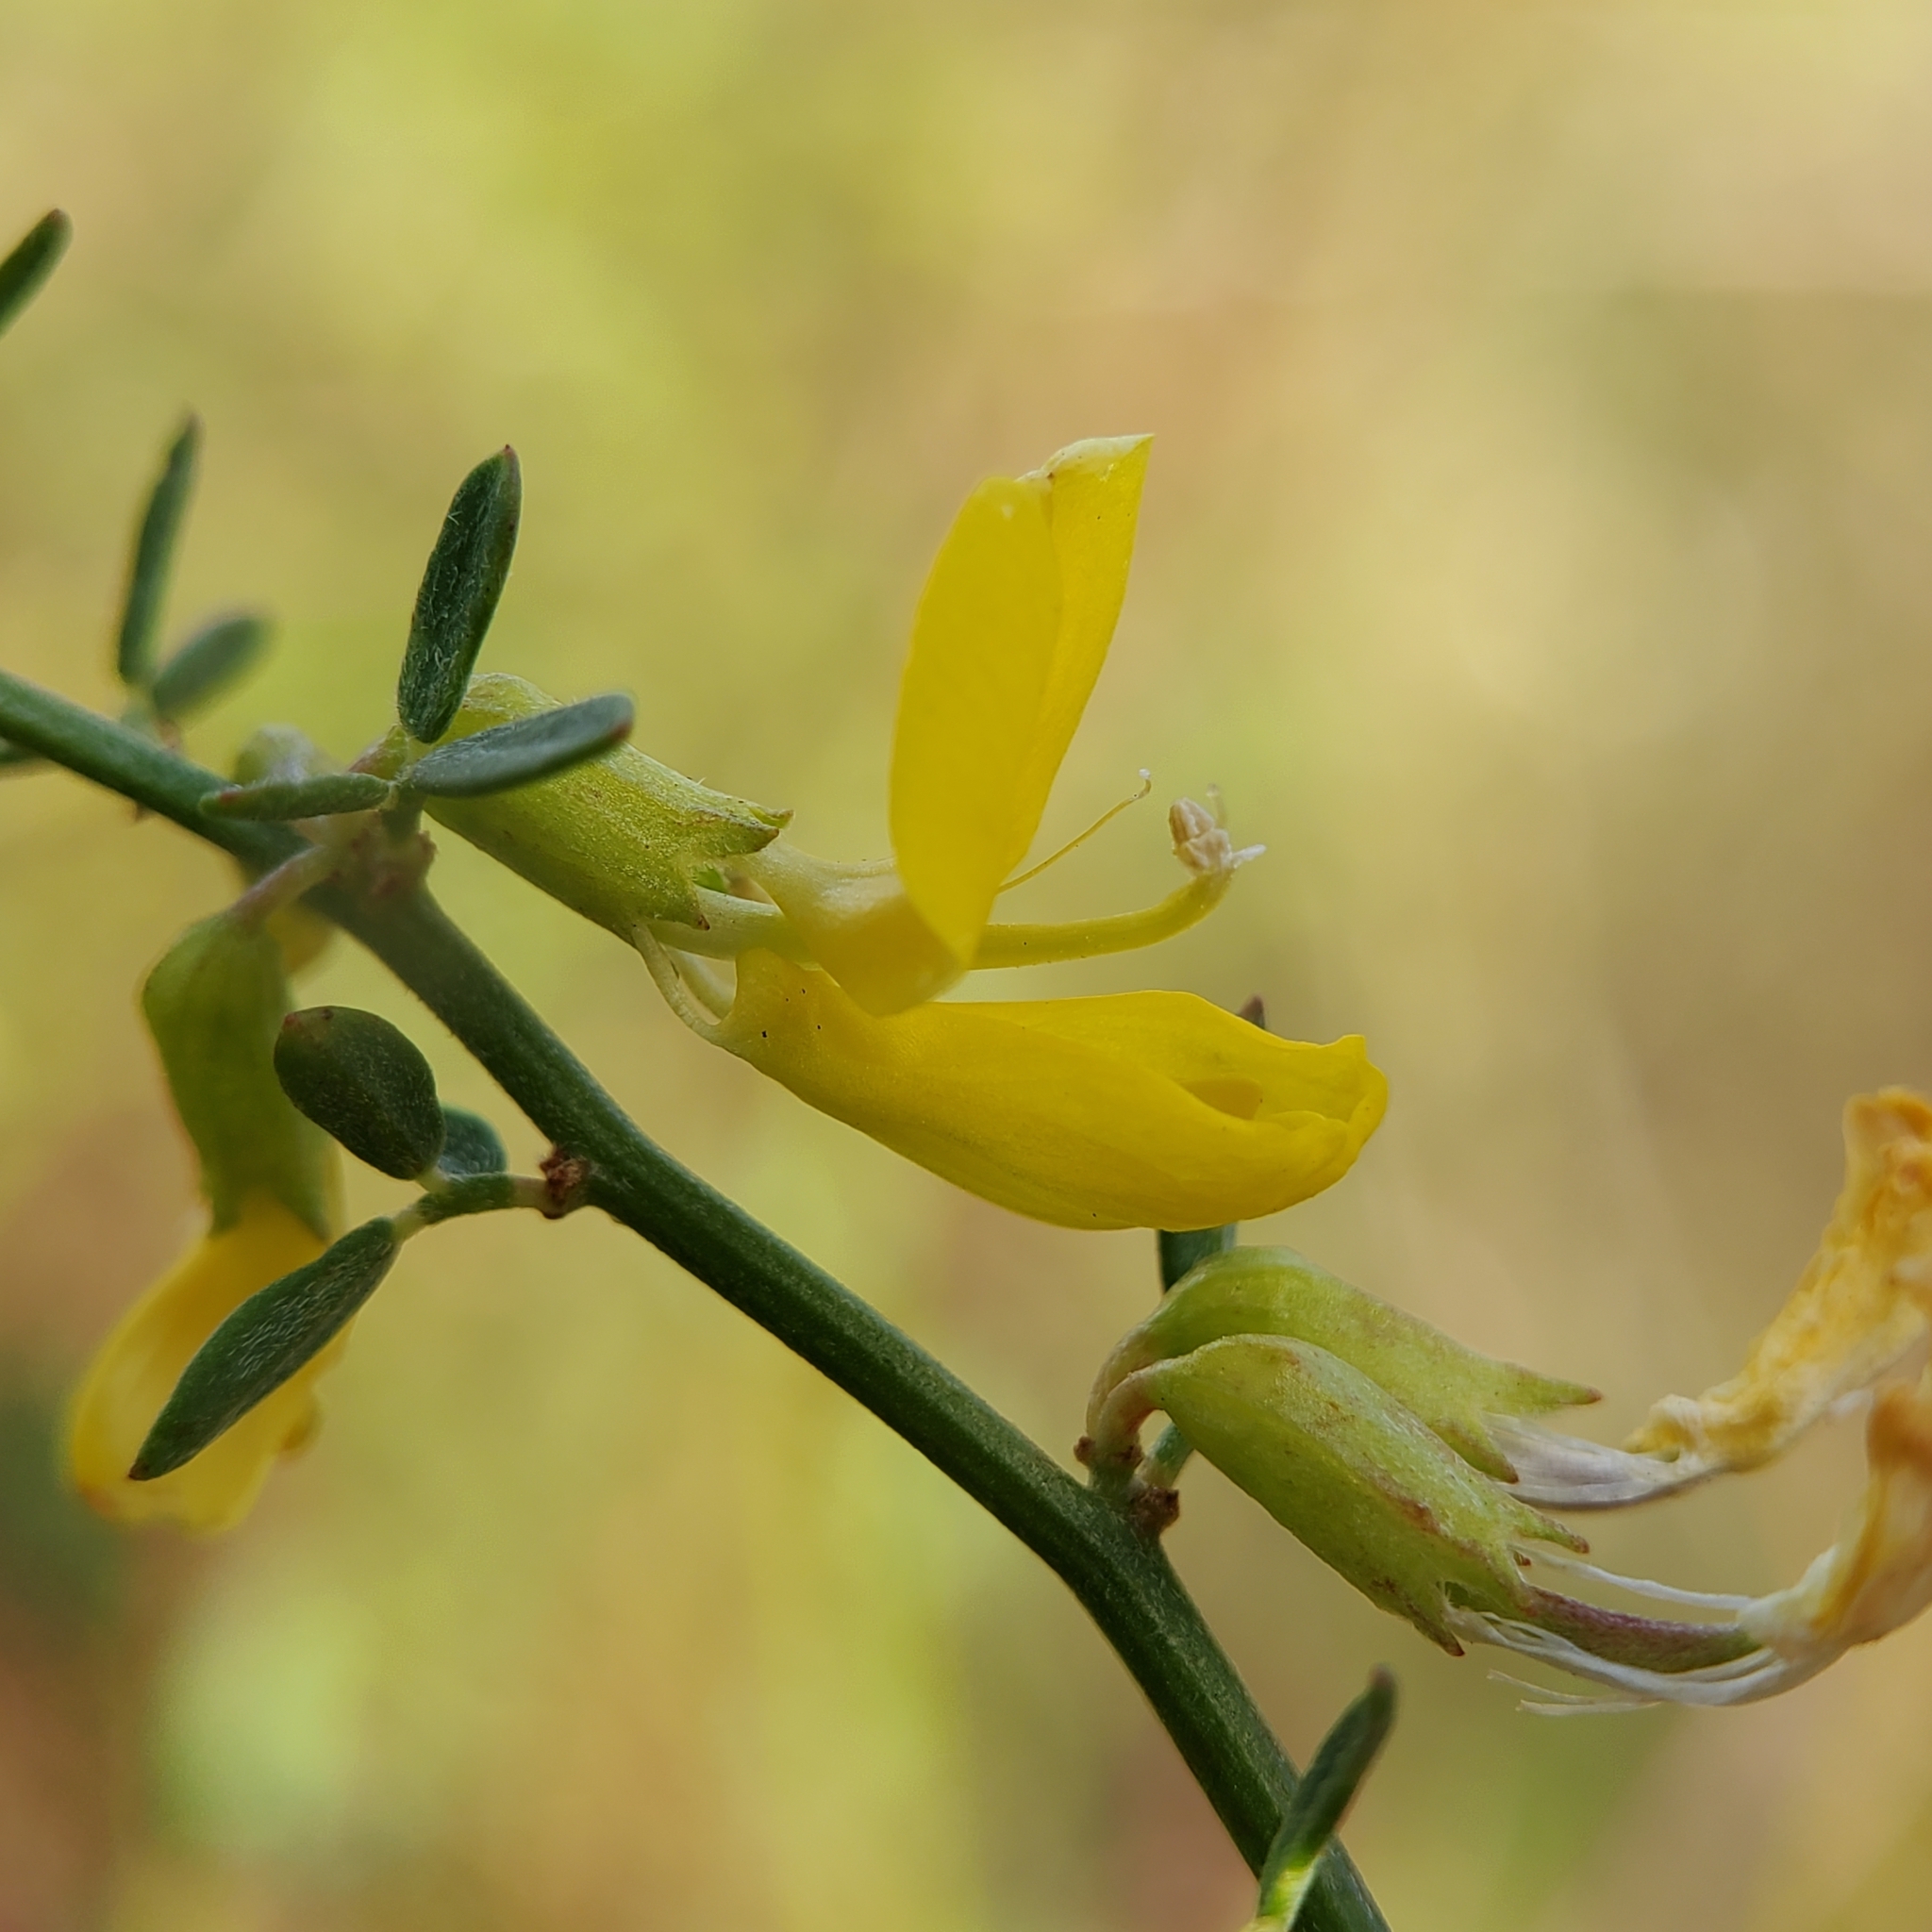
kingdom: Plantae
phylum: Tracheophyta
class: Magnoliopsida
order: Fabales
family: Fabaceae
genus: Acmispon
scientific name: Acmispon glaber
